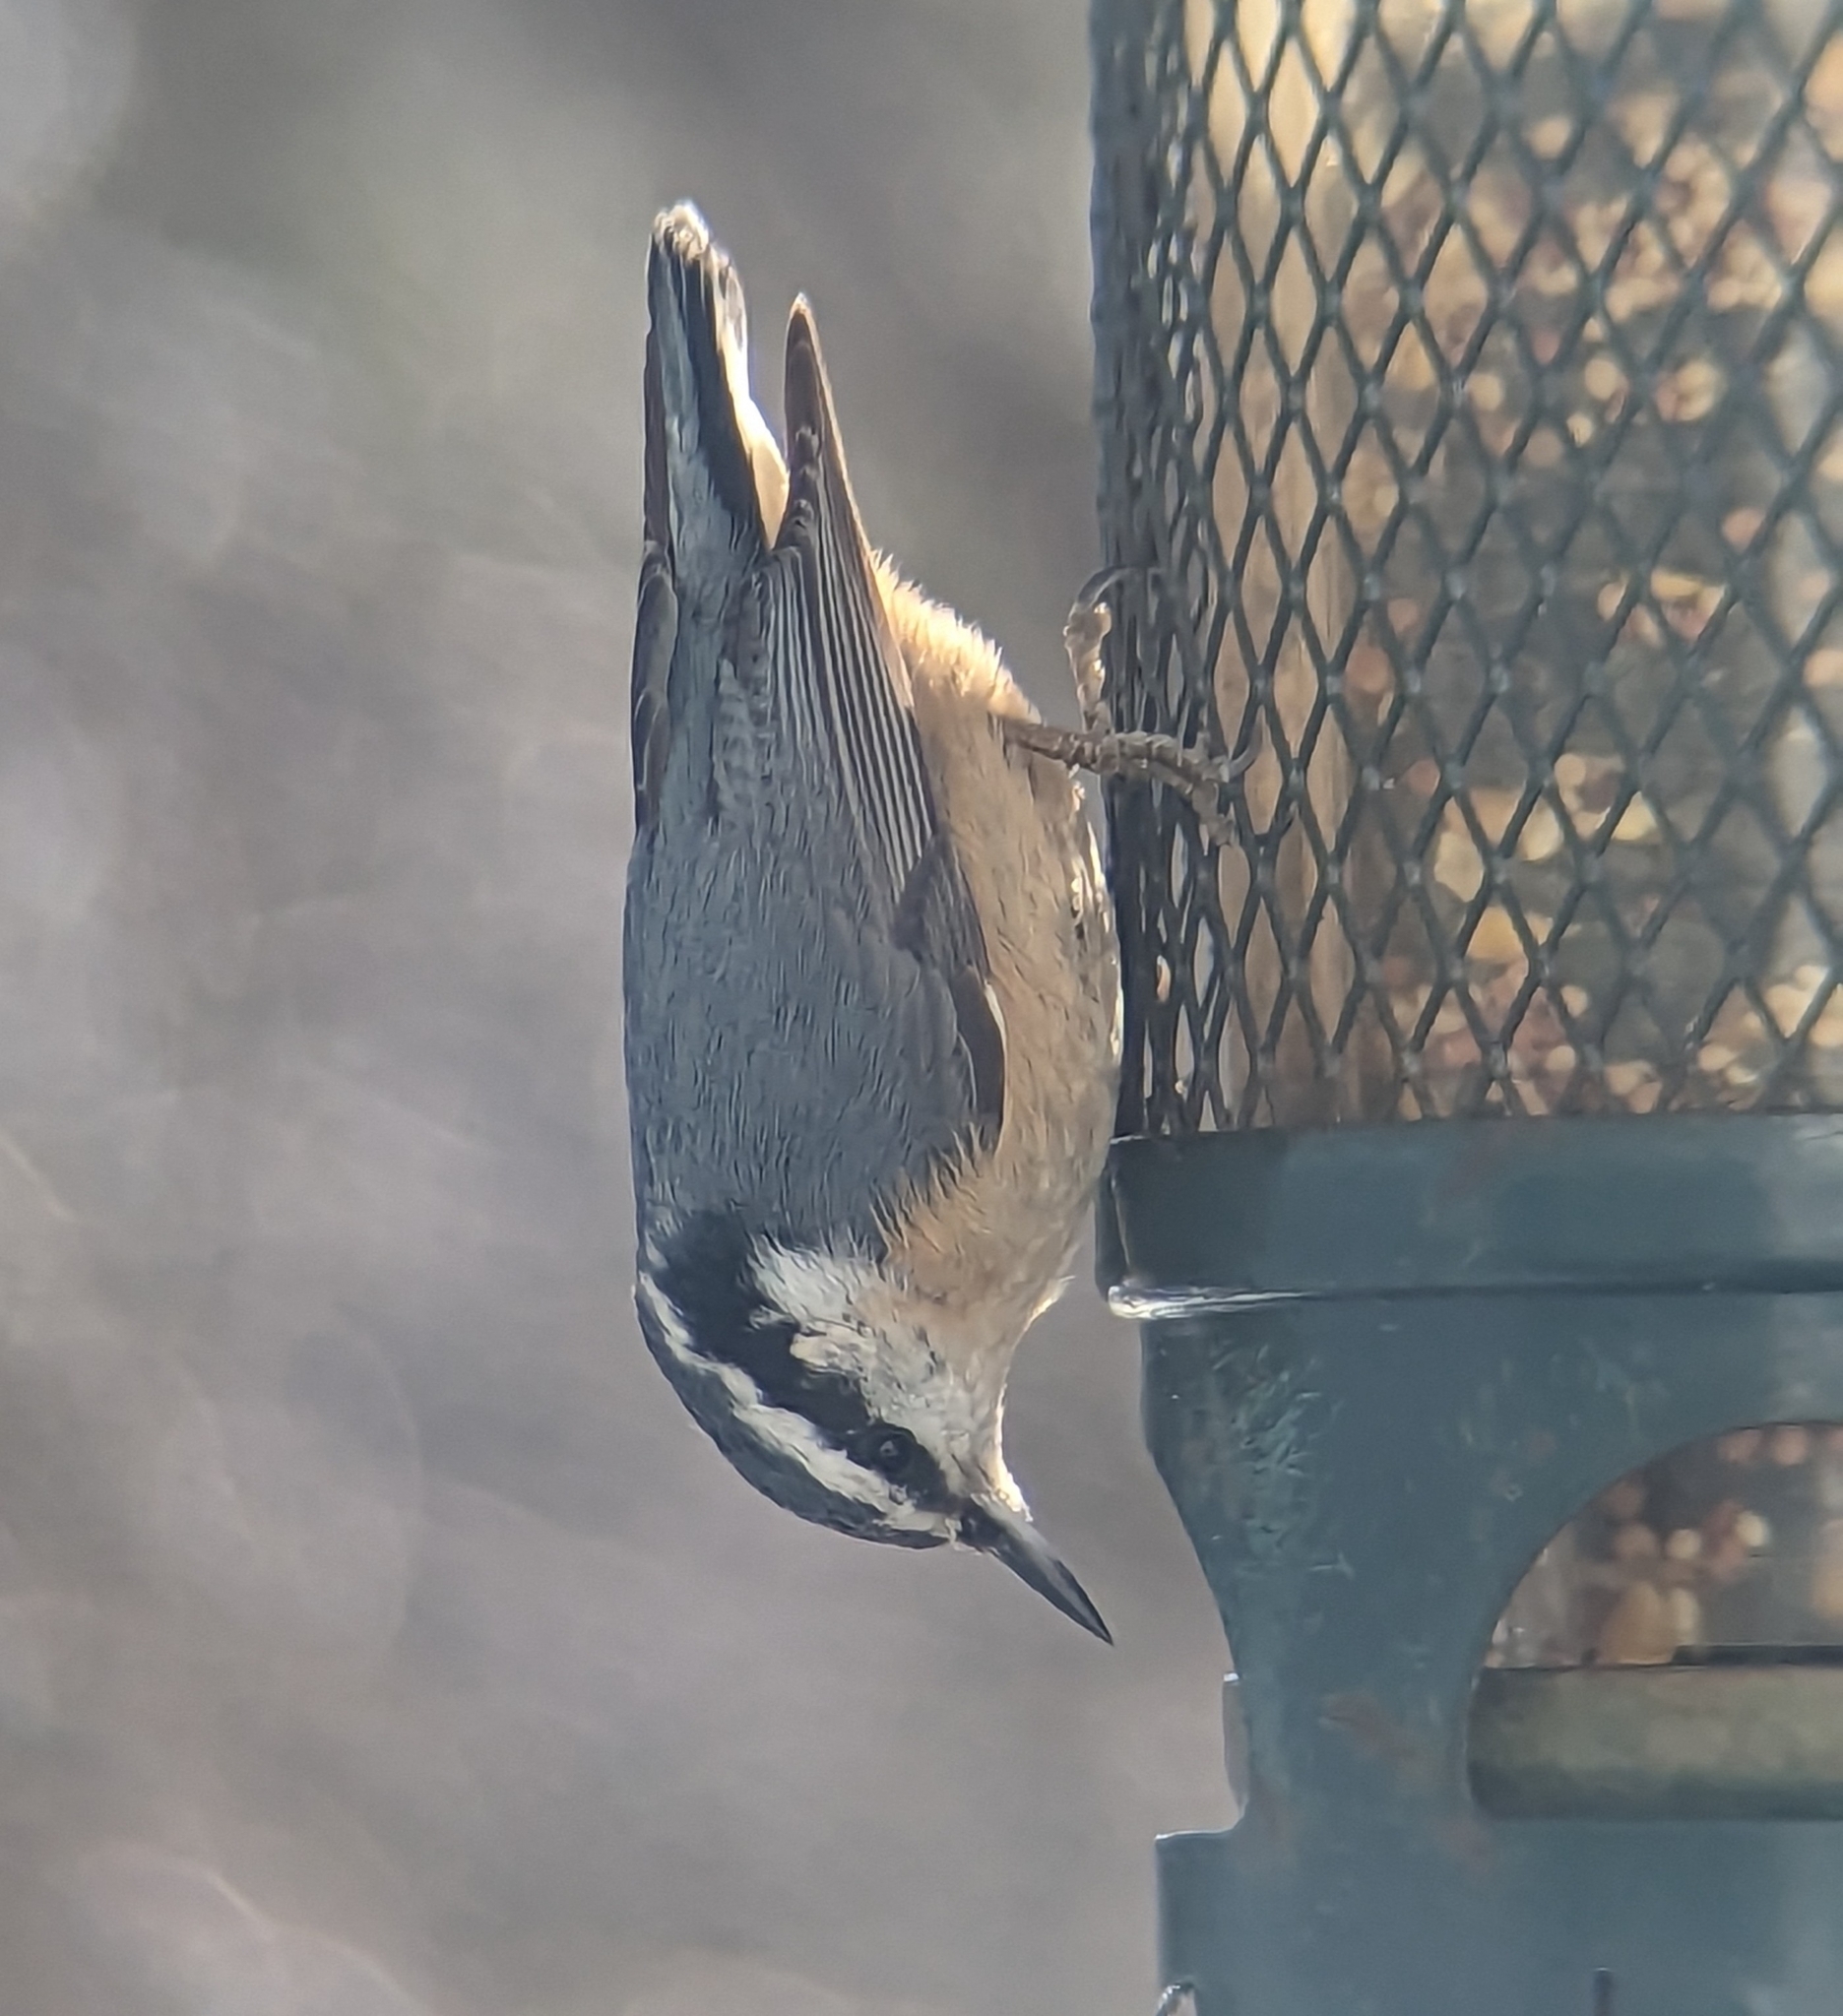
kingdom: Animalia
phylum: Chordata
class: Aves
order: Passeriformes
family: Sittidae
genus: Sitta
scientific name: Sitta canadensis
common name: Red-breasted nuthatch
